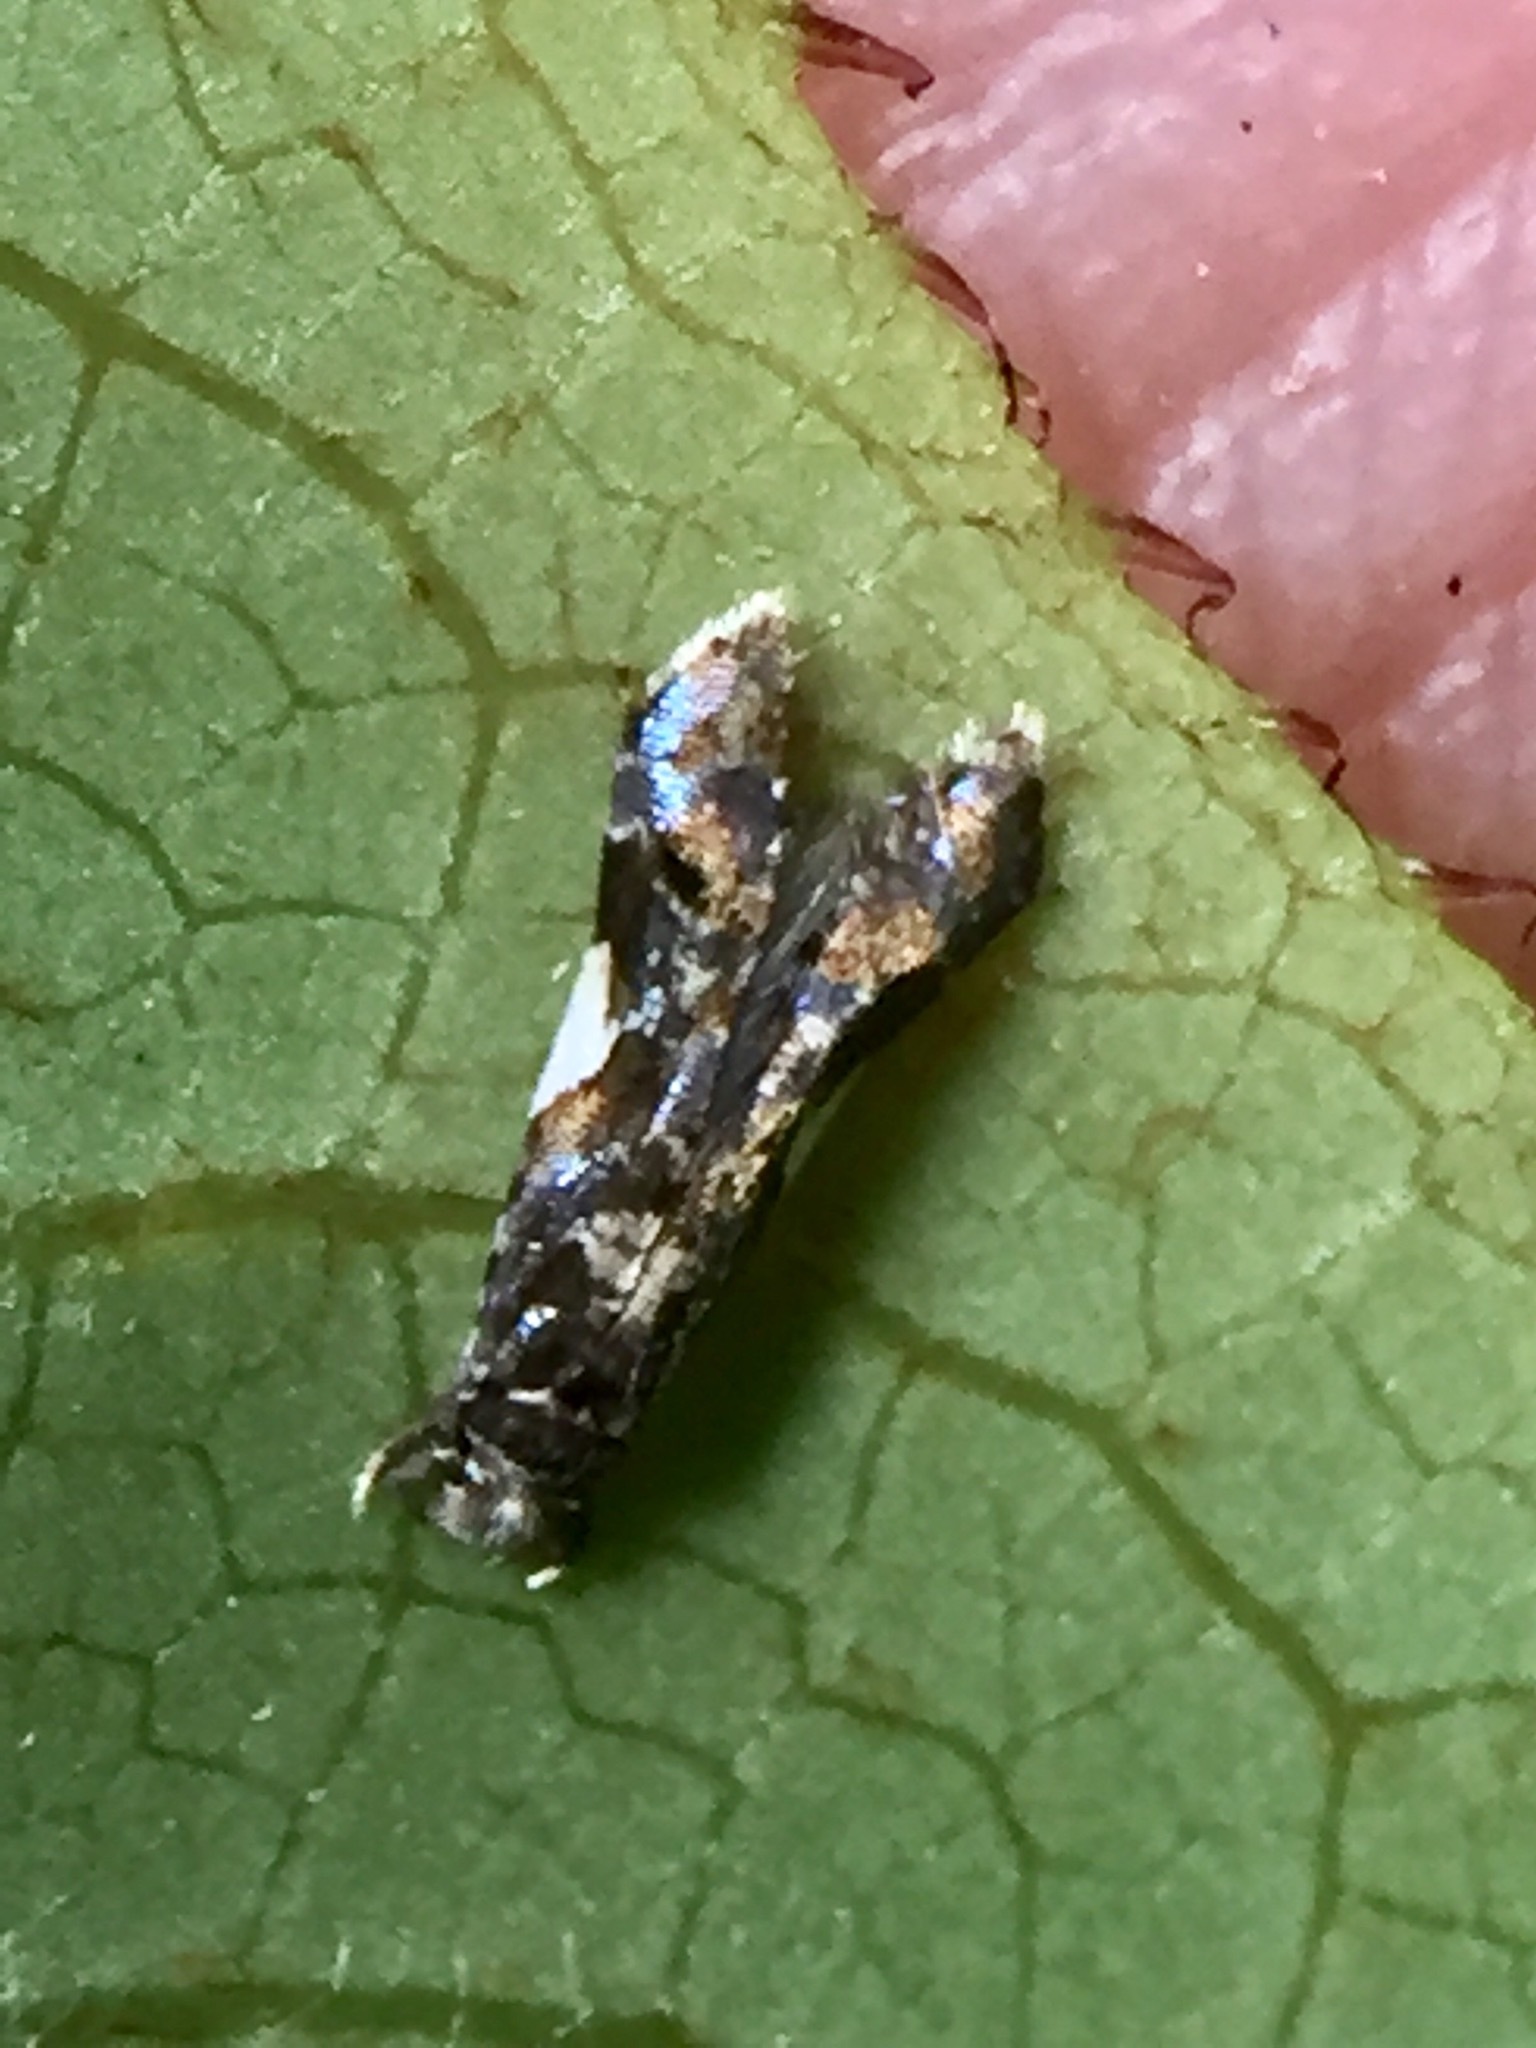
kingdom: Animalia
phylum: Arthropoda
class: Insecta
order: Lepidoptera
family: Tineidae
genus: Habrophila
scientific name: Habrophila compseuta
